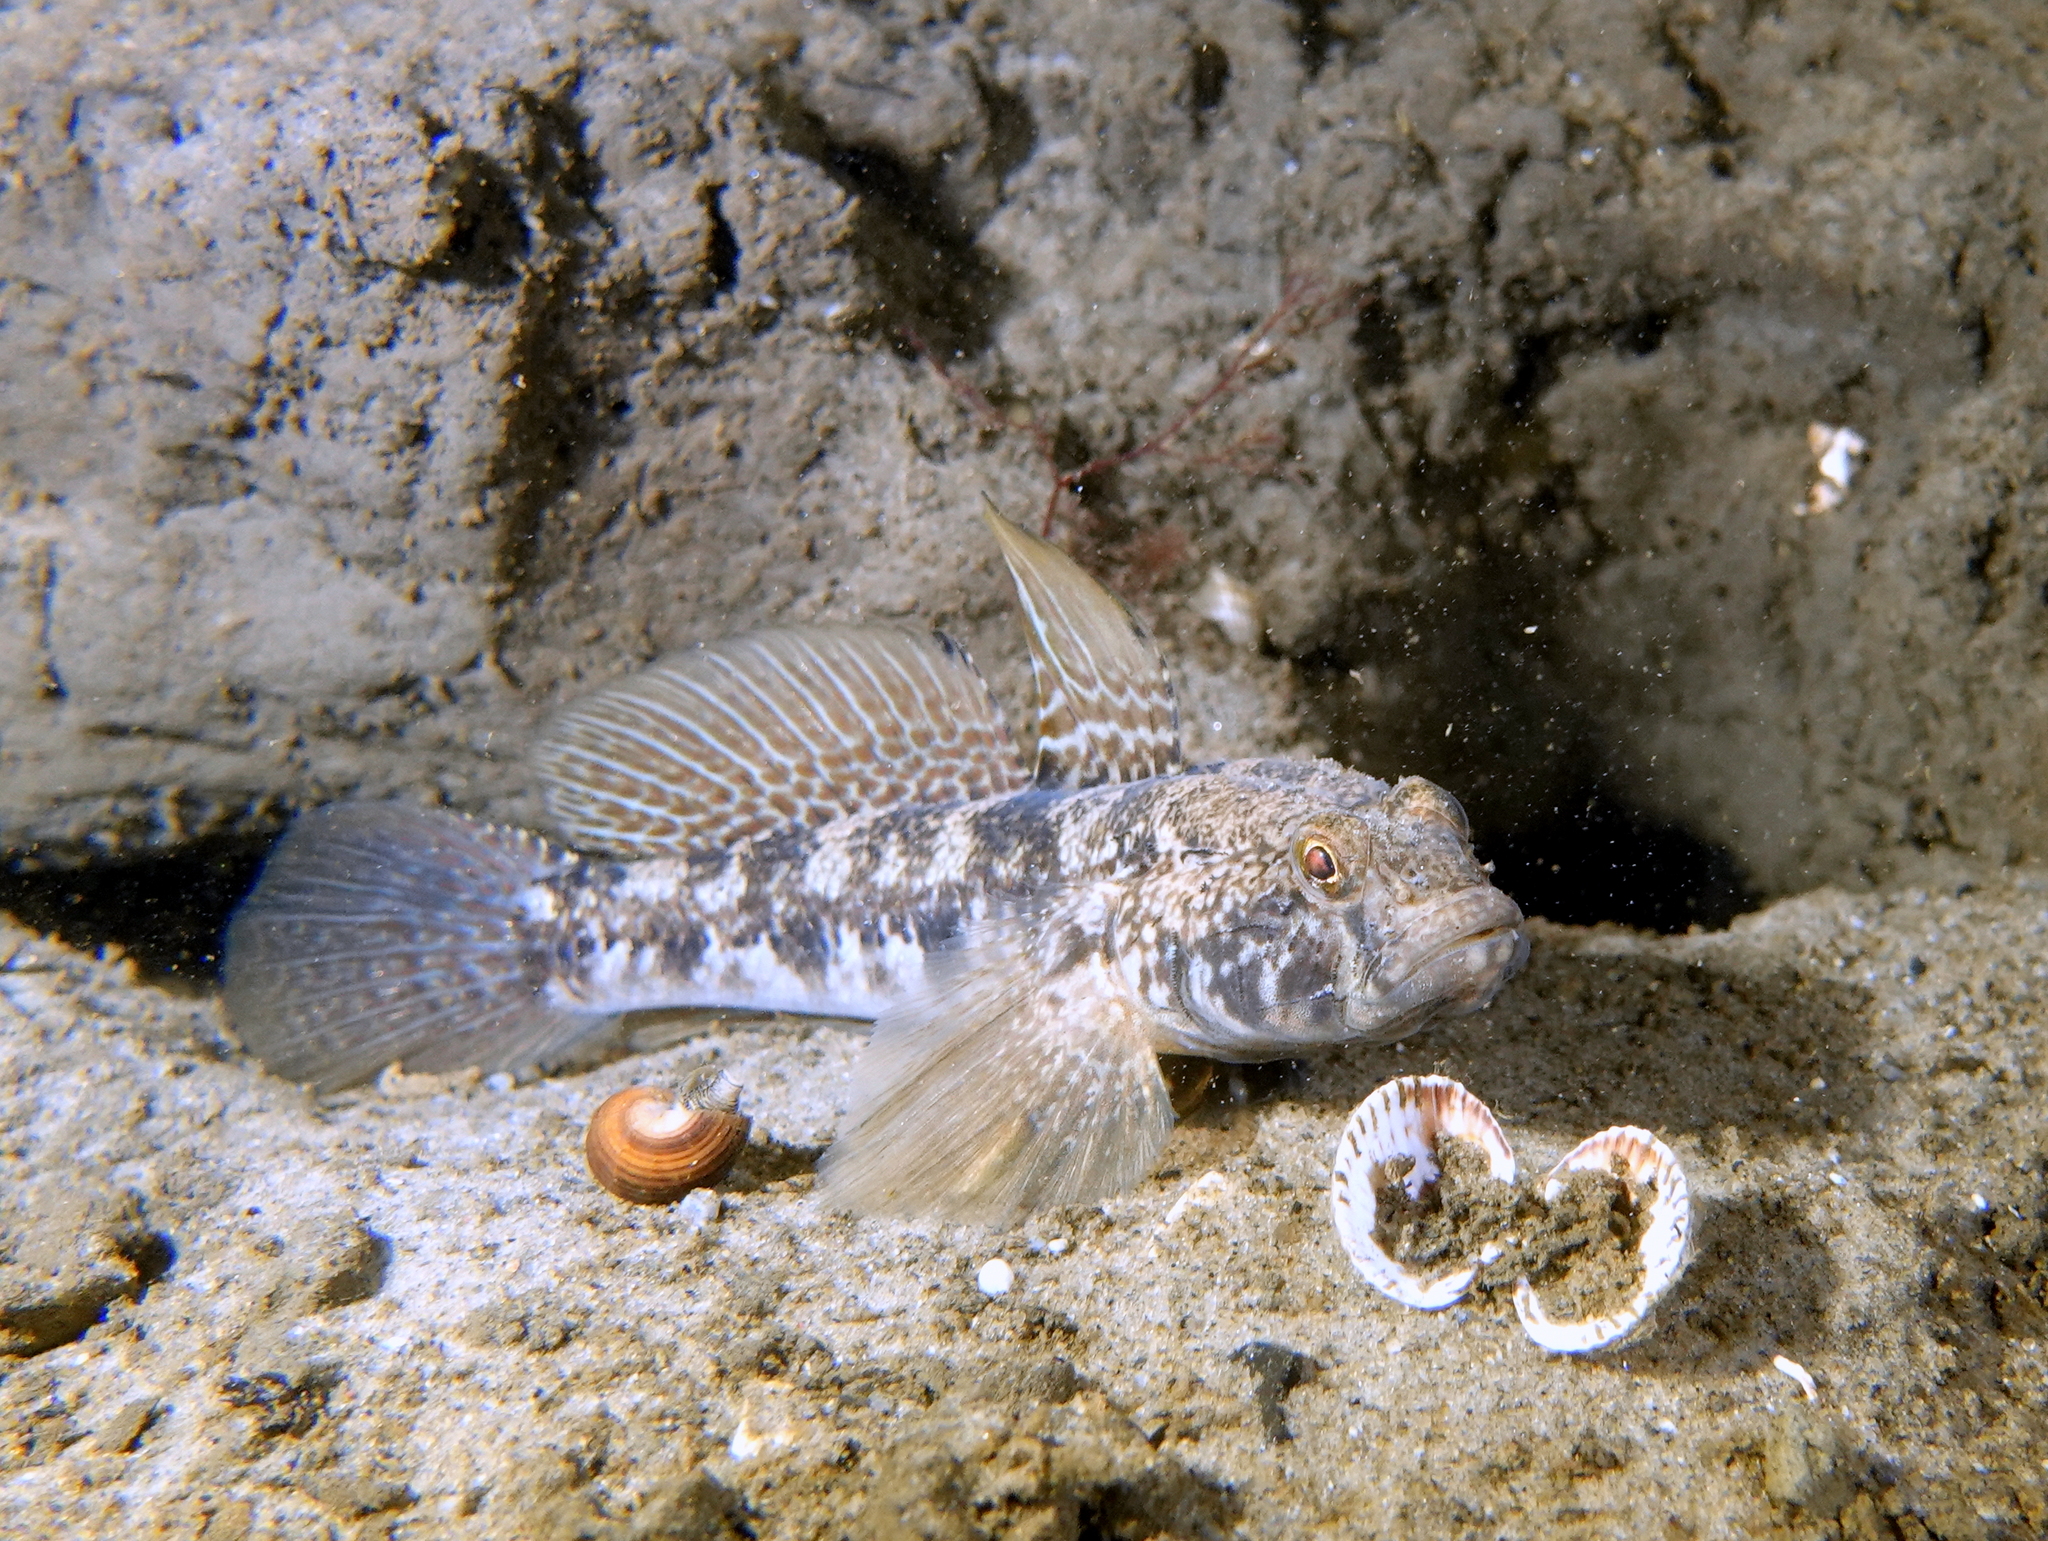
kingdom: Animalia
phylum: Chordata
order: Perciformes
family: Gobiidae
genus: Gobius
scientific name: Gobius niger
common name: Black goby
